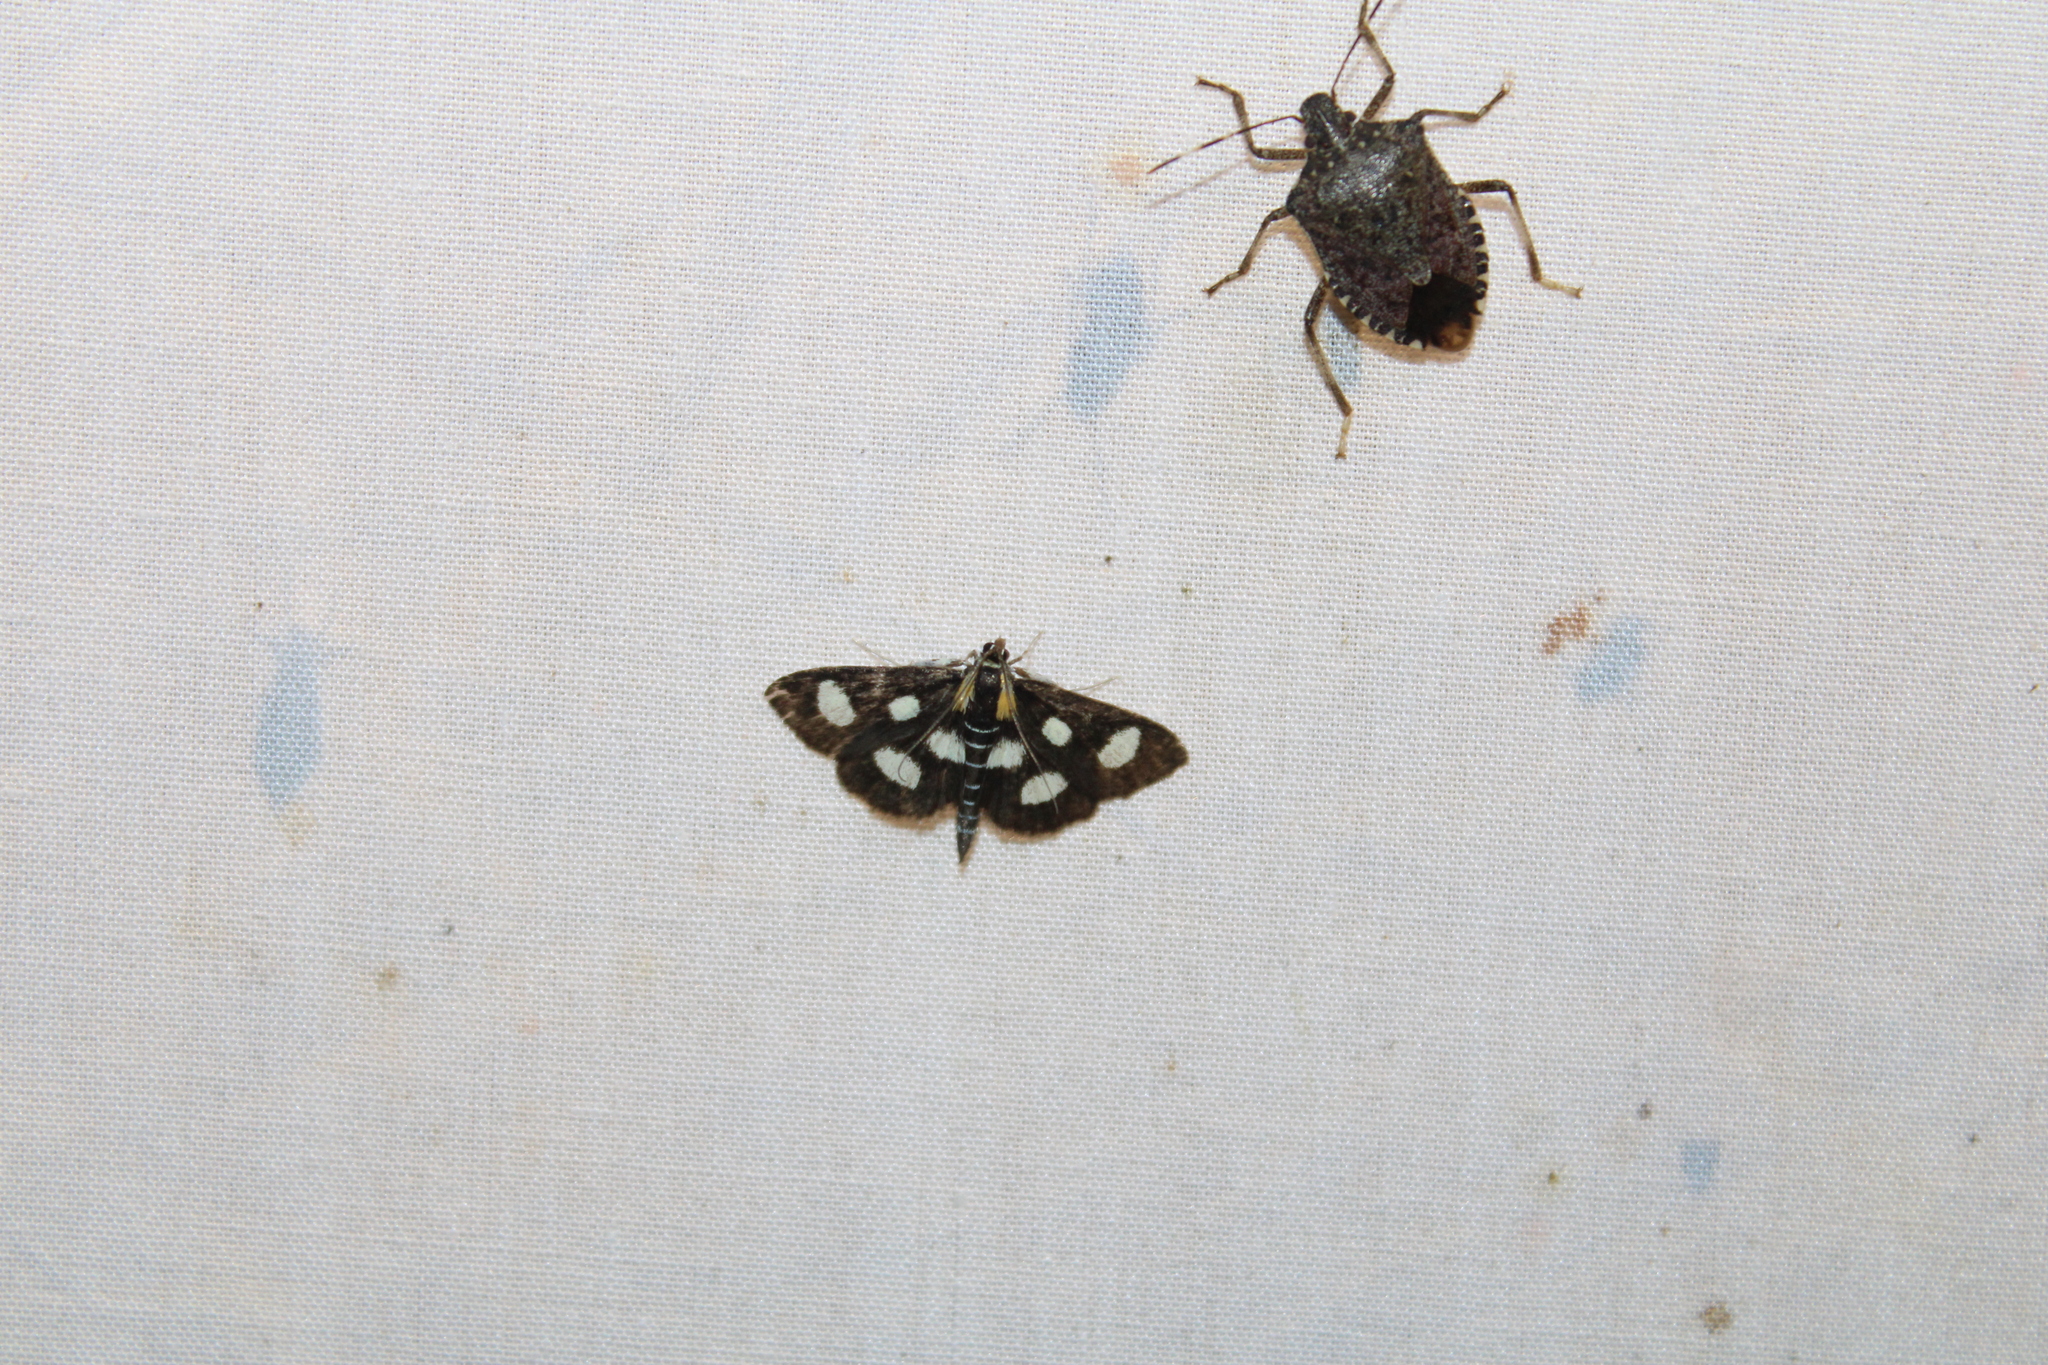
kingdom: Animalia
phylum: Arthropoda
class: Insecta
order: Lepidoptera
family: Crambidae
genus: Anania
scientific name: Anania funebris
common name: White-spotted sable moth
